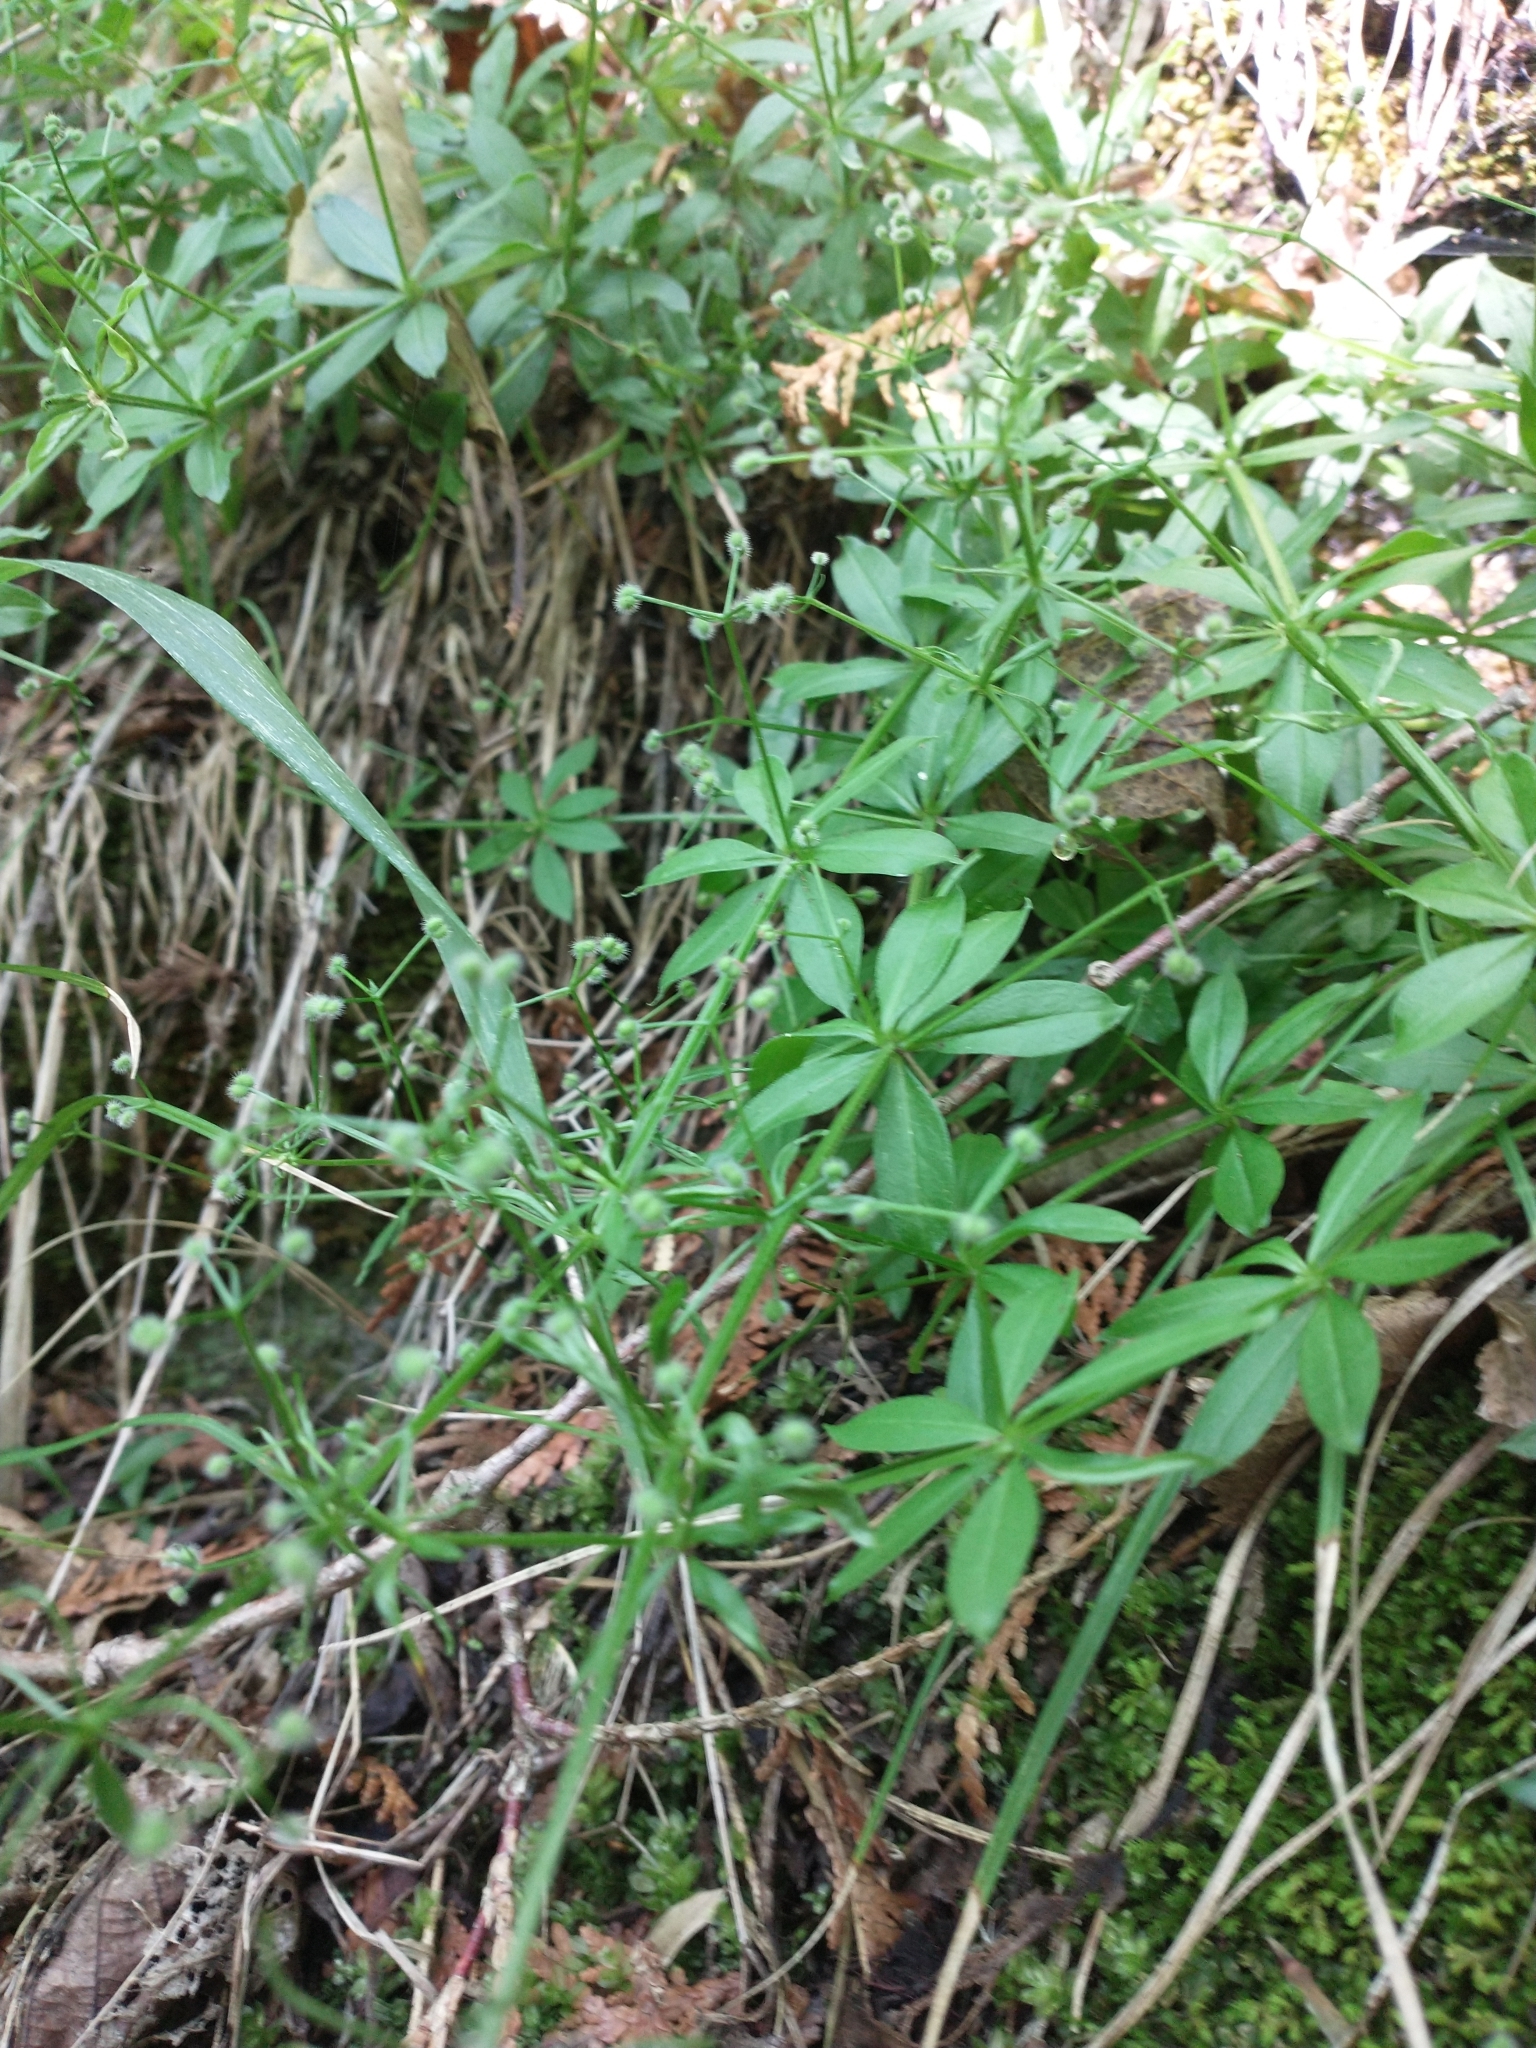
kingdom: Plantae
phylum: Tracheophyta
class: Magnoliopsida
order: Gentianales
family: Rubiaceae
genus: Galium
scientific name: Galium triflorum
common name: Fragrant bedstraw
